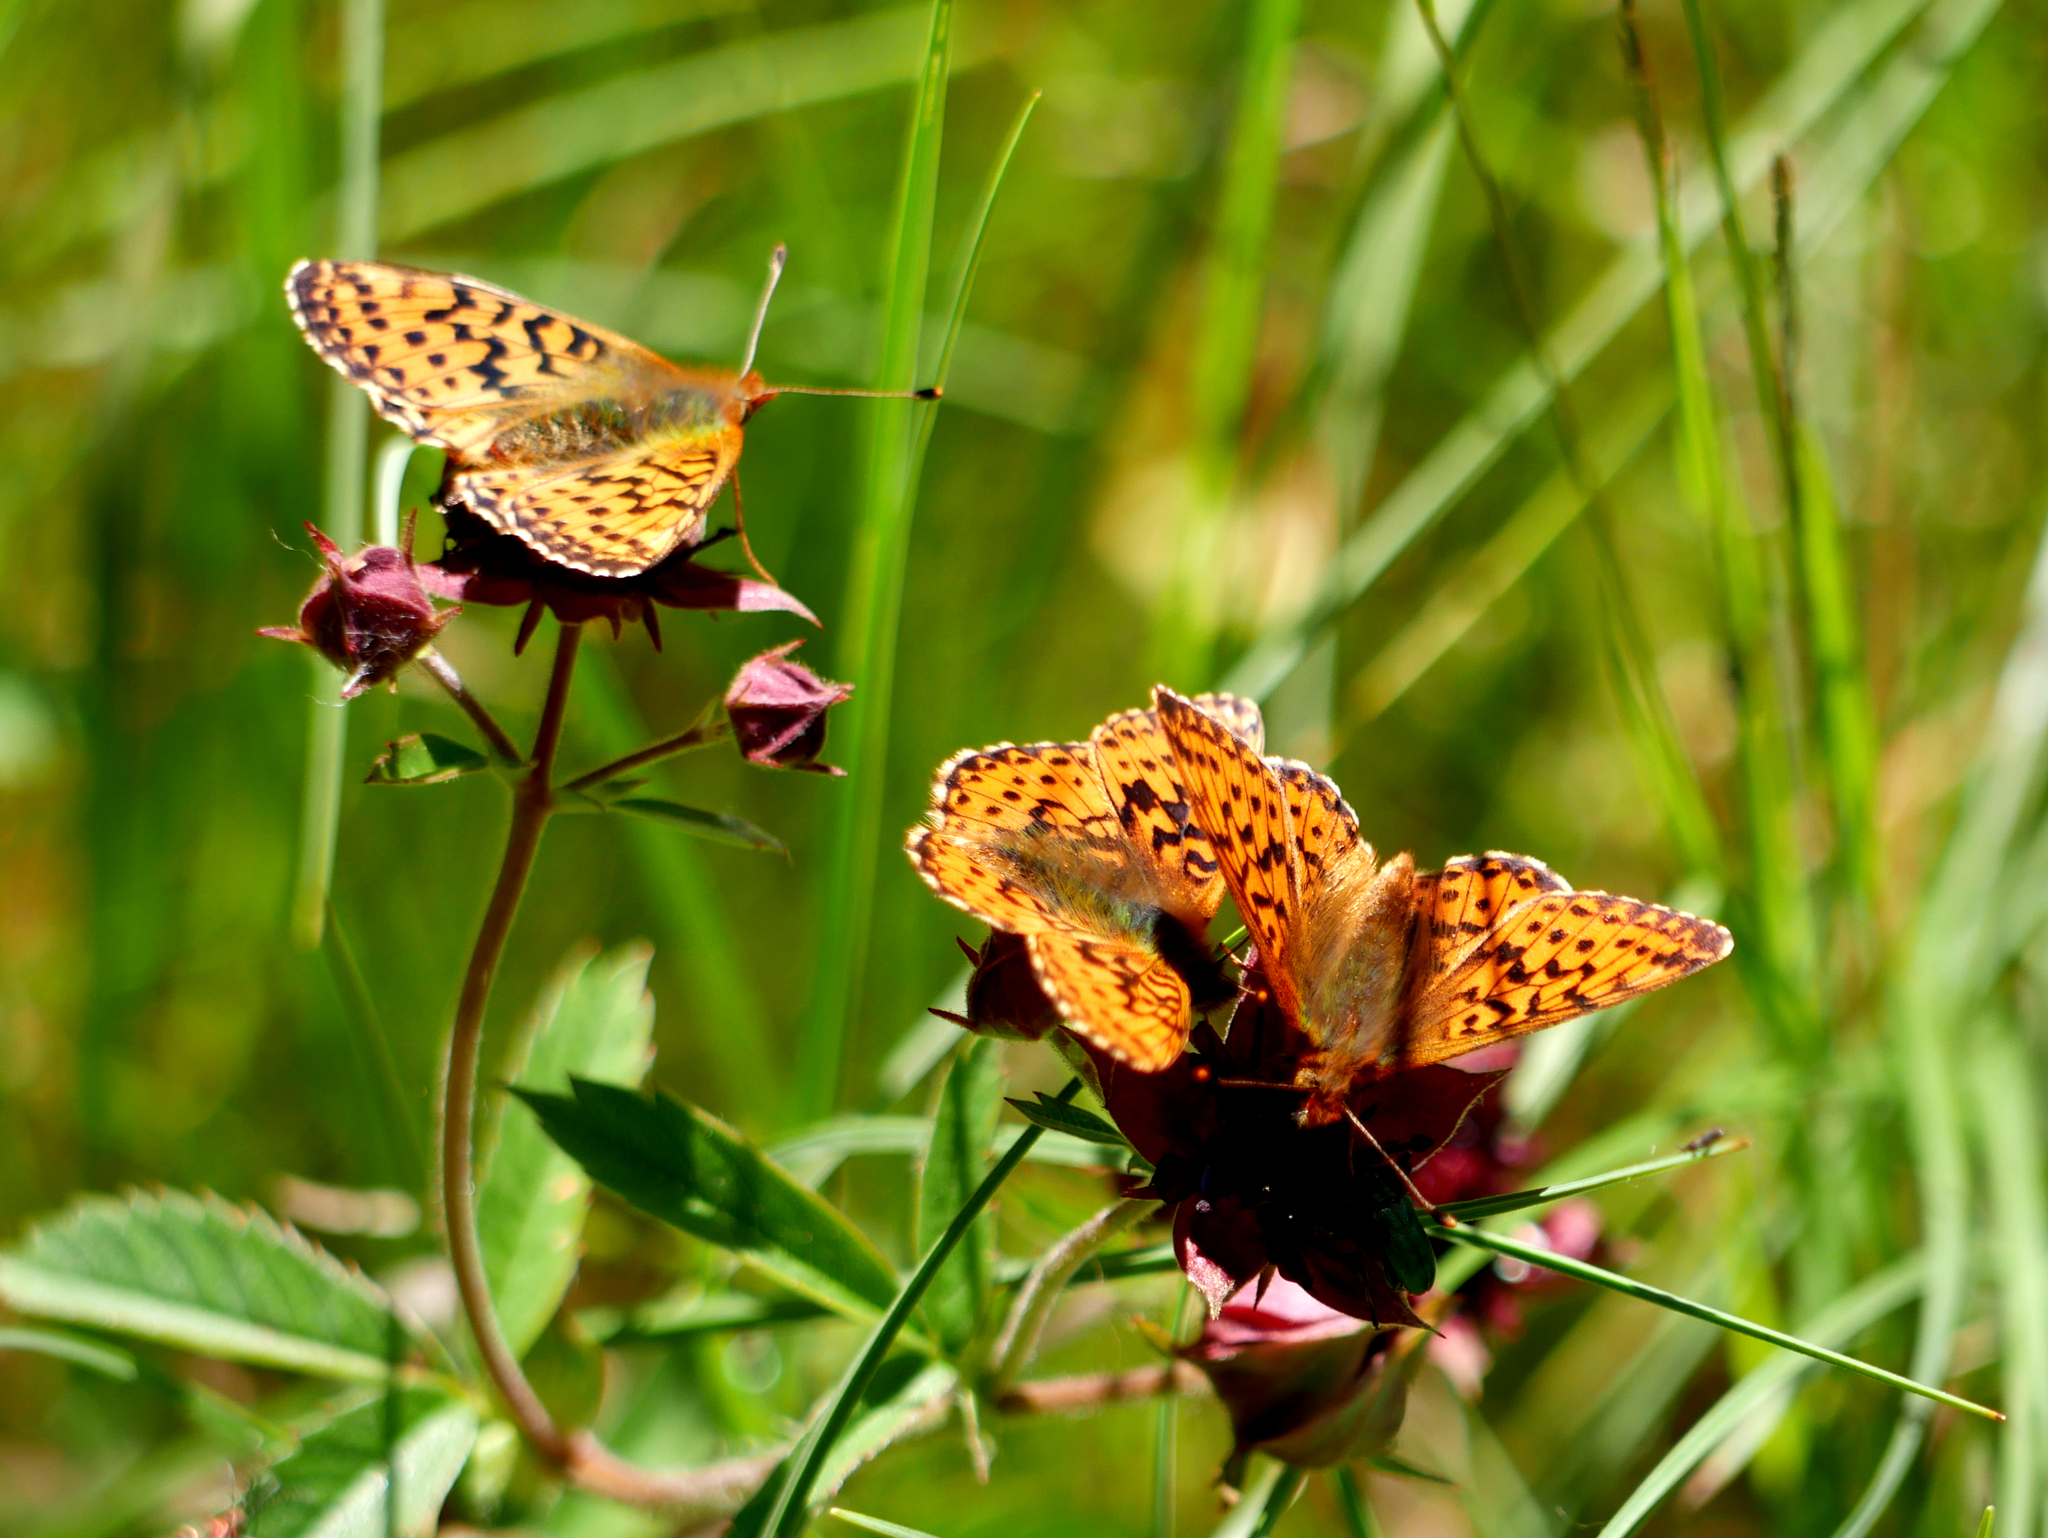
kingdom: Animalia
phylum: Arthropoda
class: Insecta
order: Lepidoptera
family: Nymphalidae
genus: Boloria
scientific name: Boloria aquilonaris
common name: Cranberry fritillary
